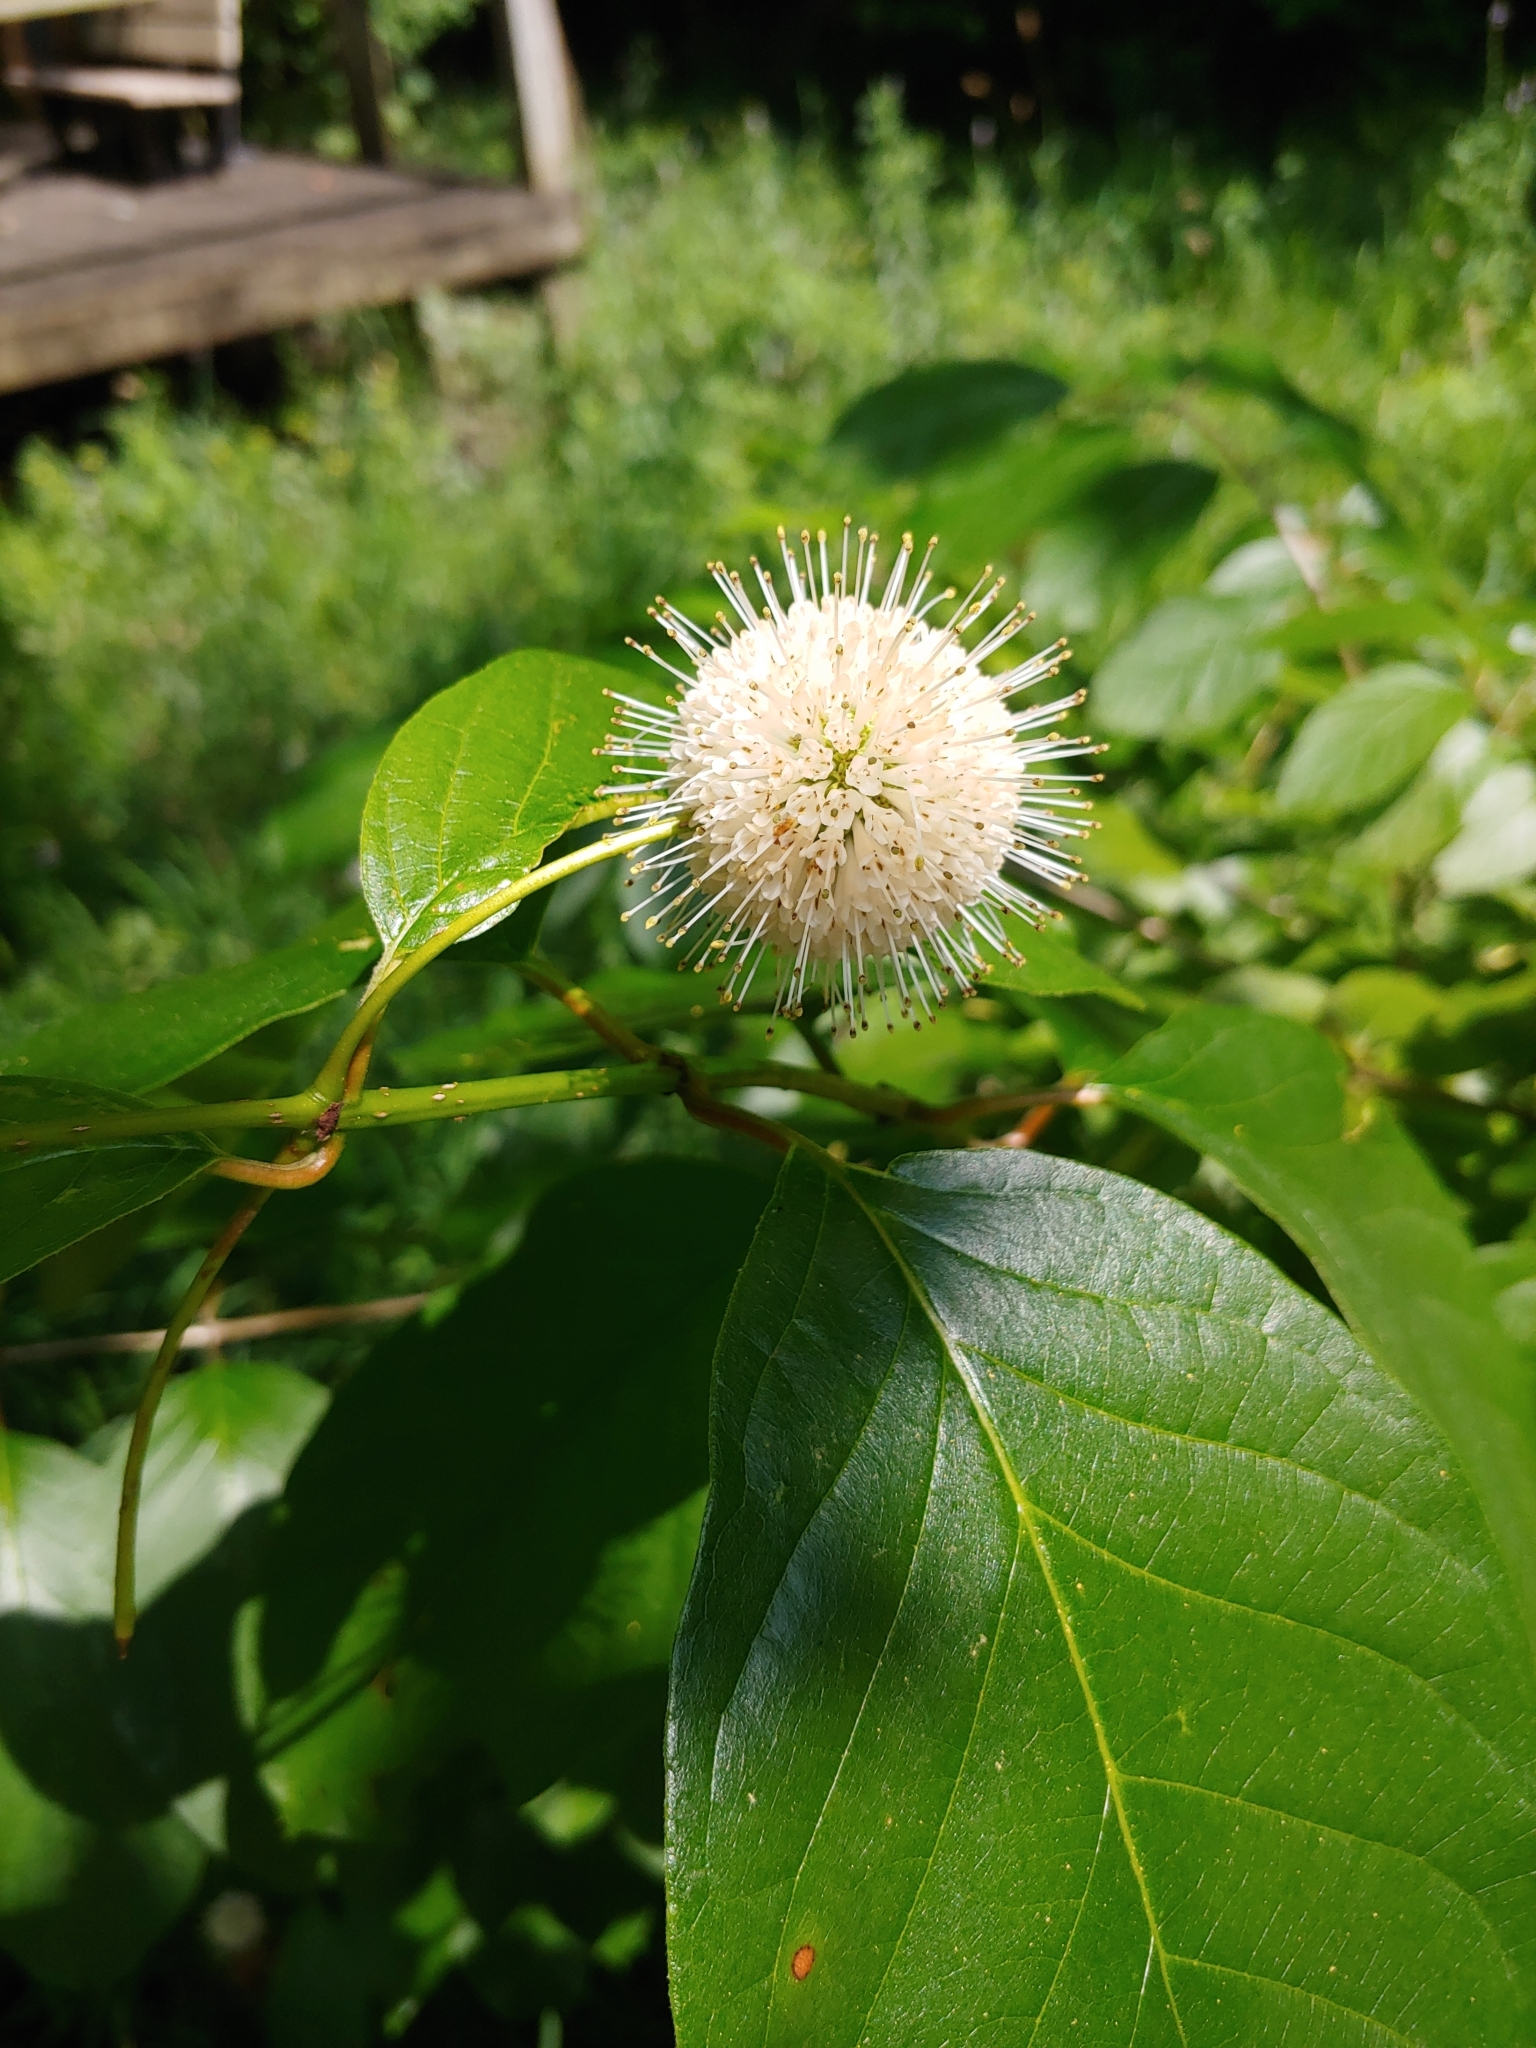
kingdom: Plantae
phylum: Tracheophyta
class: Magnoliopsida
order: Gentianales
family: Rubiaceae
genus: Cephalanthus
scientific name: Cephalanthus occidentalis
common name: Button-willow
